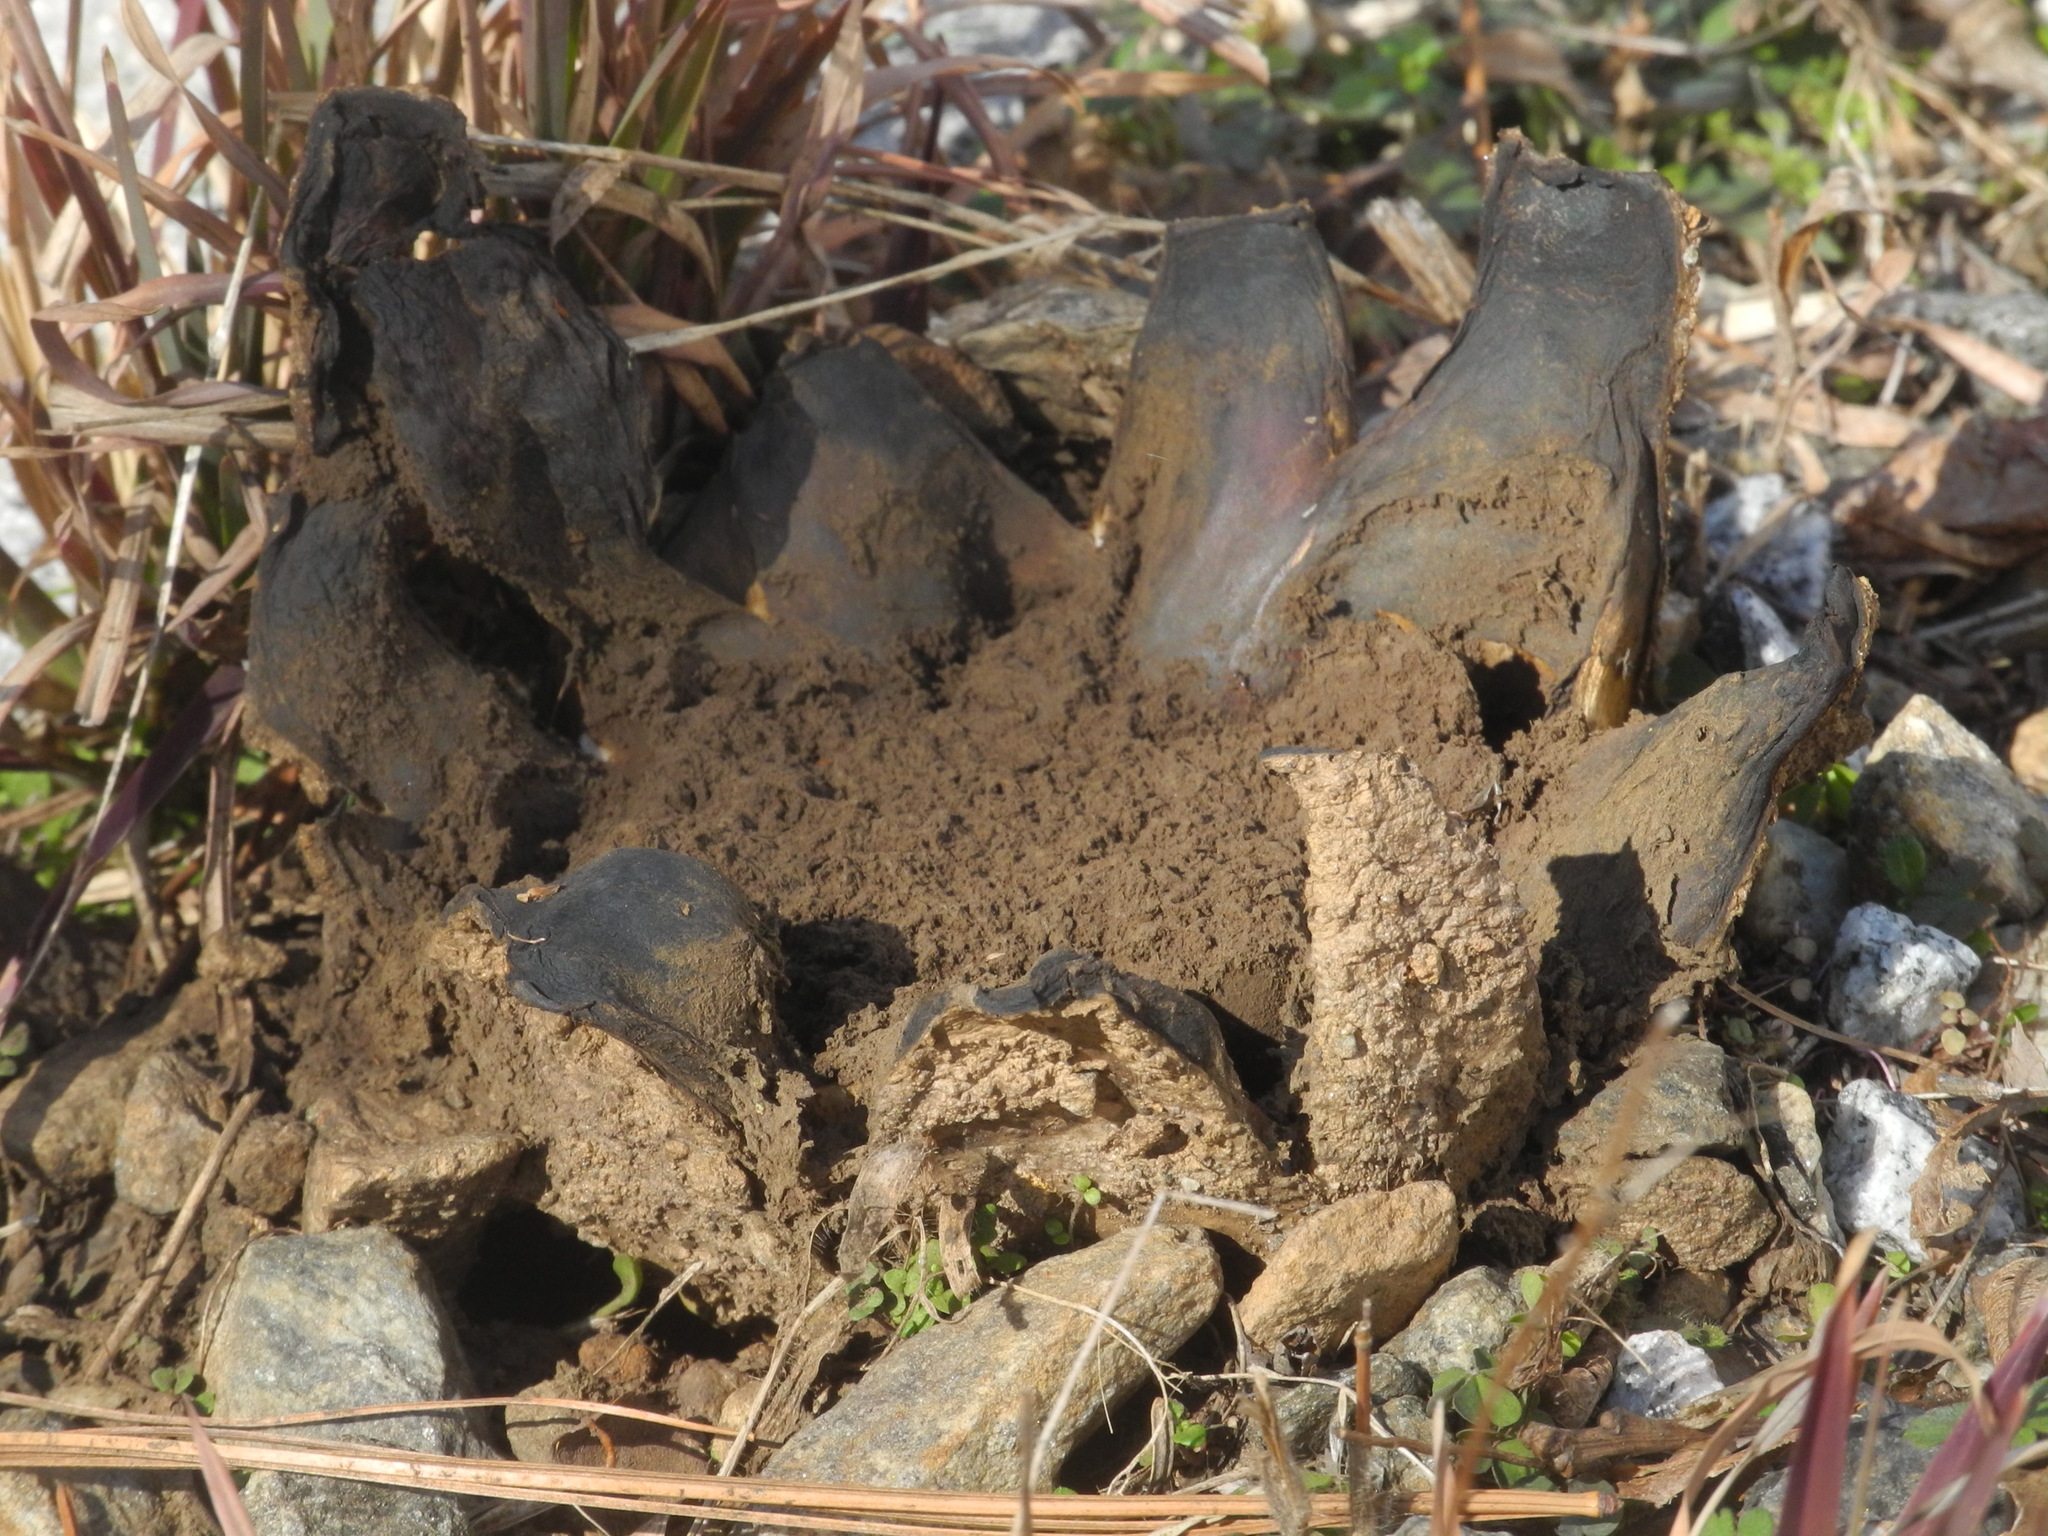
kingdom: Fungi
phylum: Basidiomycota
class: Agaricomycetes
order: Boletales
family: Sclerodermataceae
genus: Scleroderma
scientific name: Scleroderma polyrhizum
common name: Many-rooted earthball
